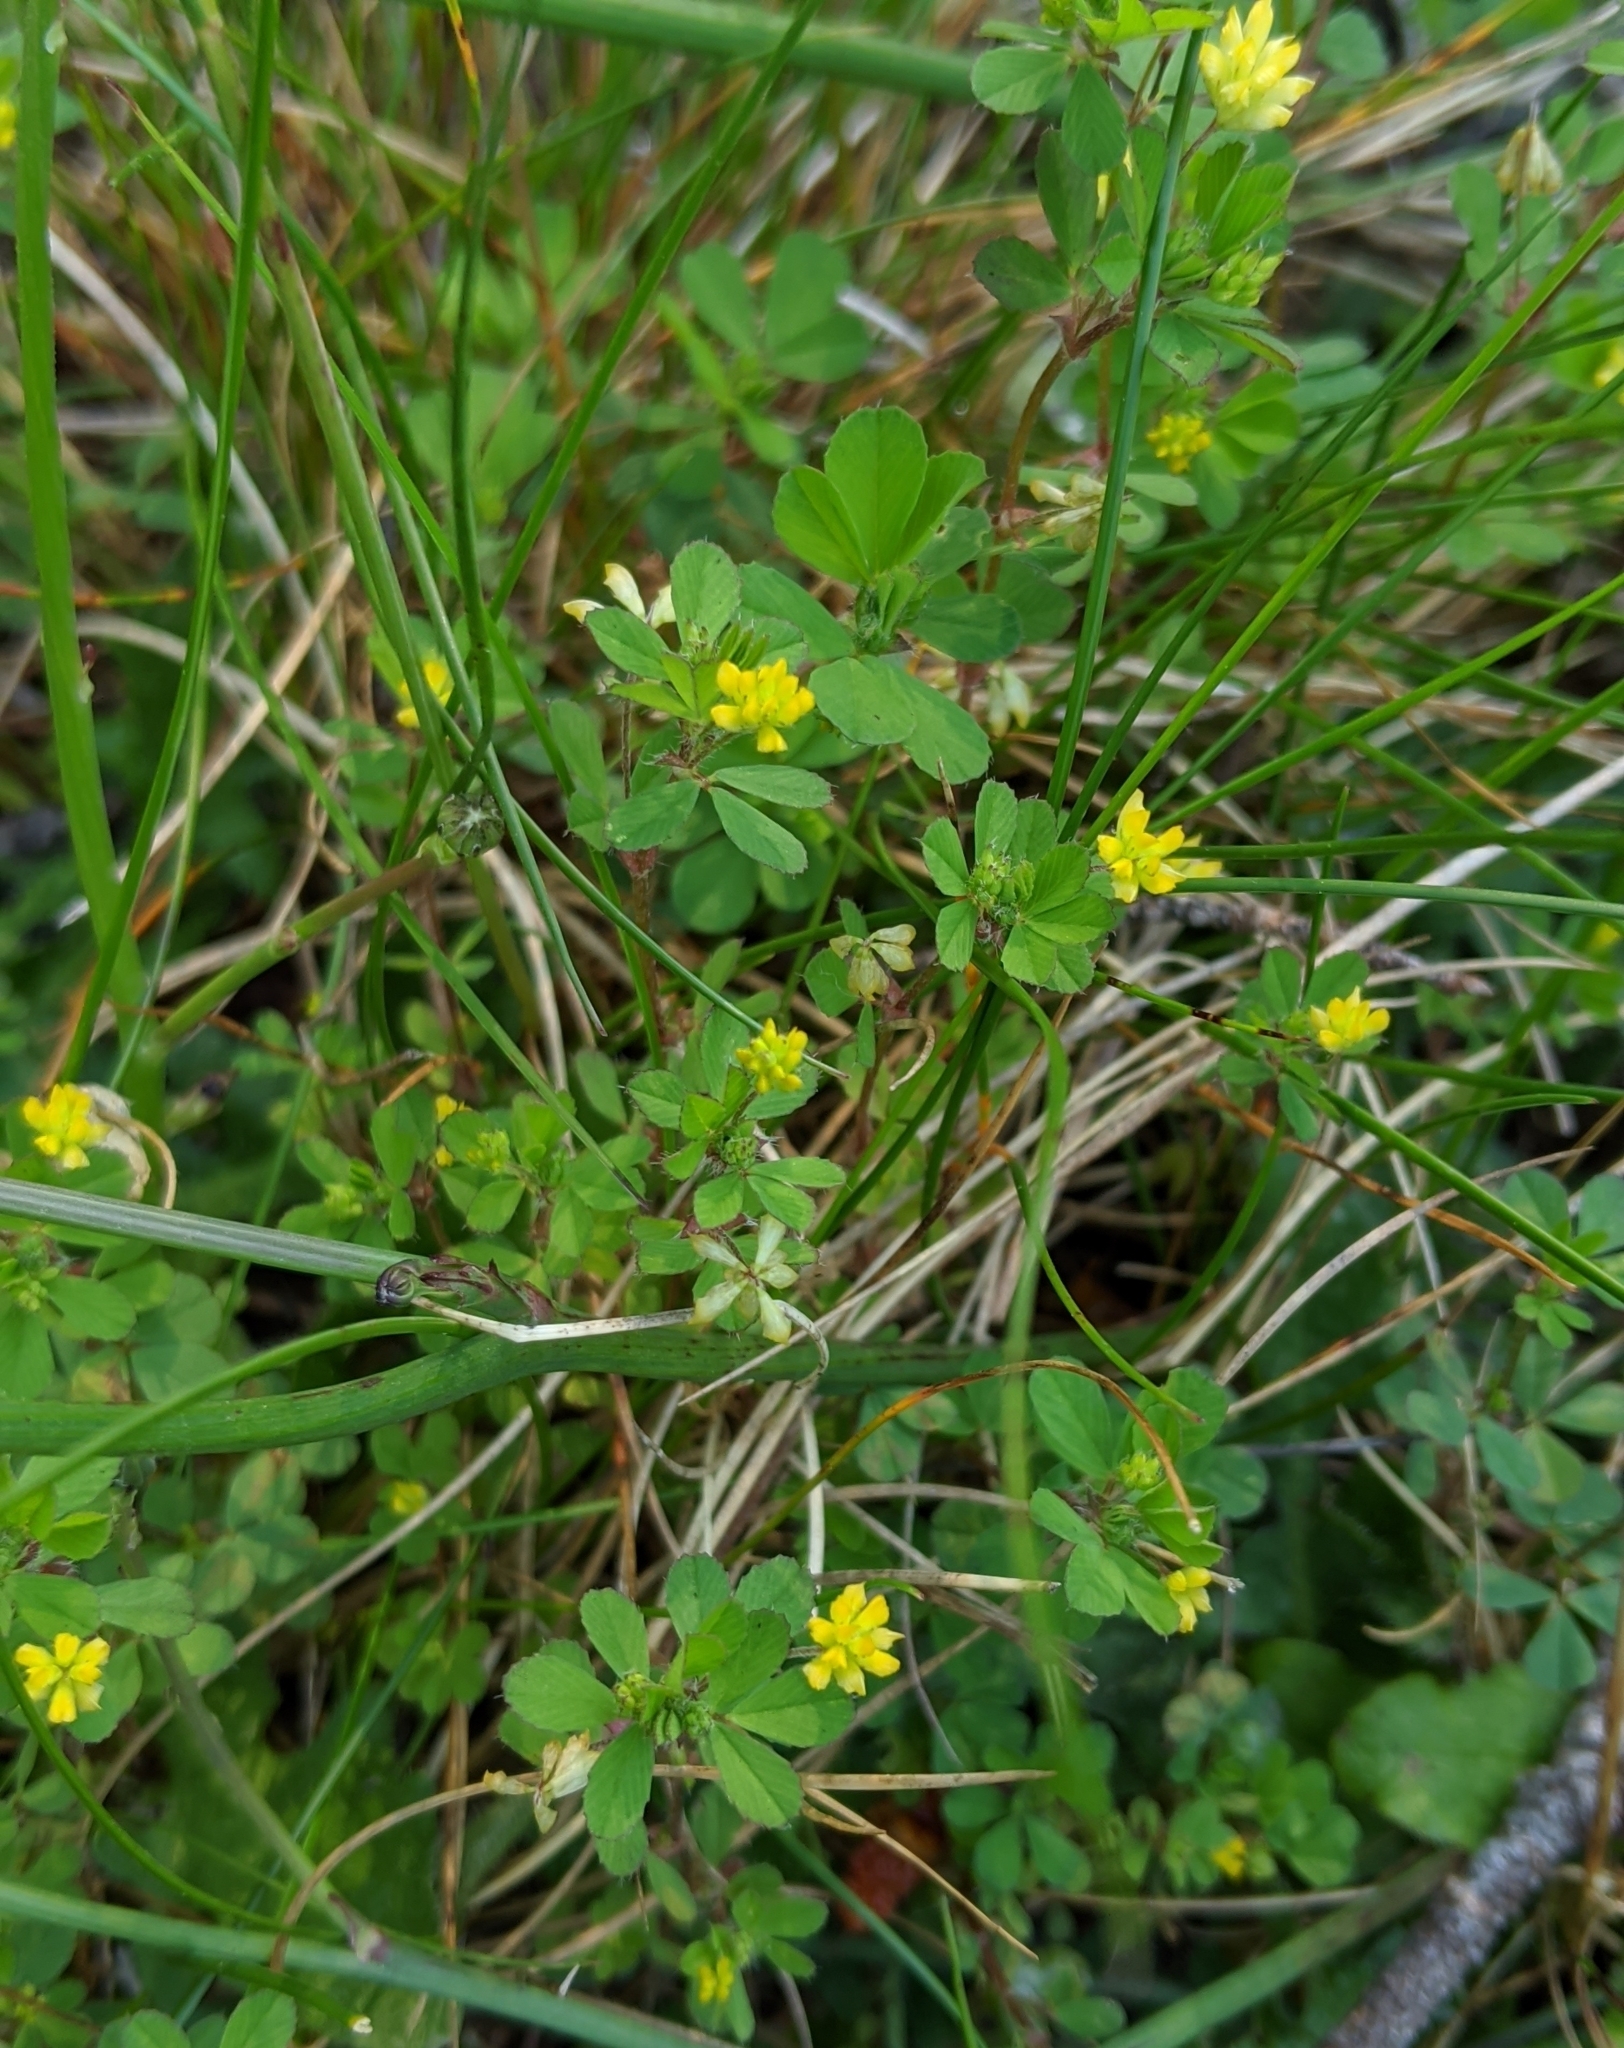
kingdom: Plantae
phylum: Tracheophyta
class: Magnoliopsida
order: Fabales
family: Fabaceae
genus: Trifolium
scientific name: Trifolium dubium
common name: Suckling clover
